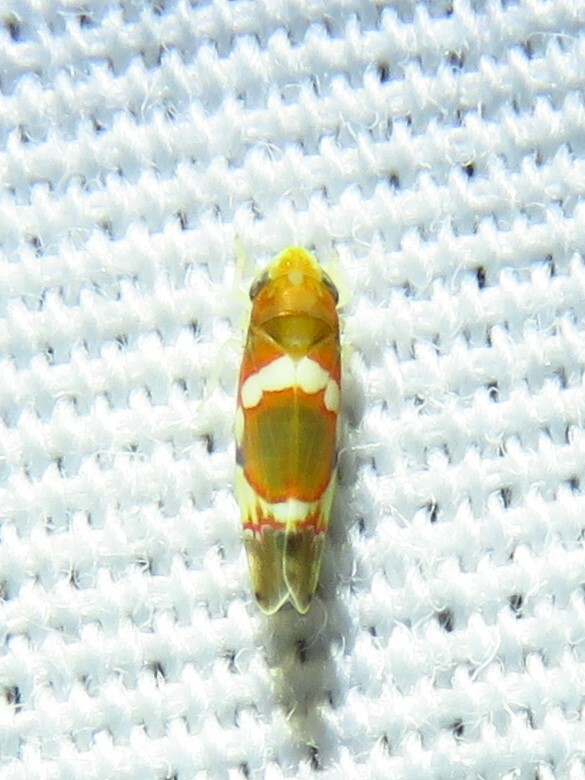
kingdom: Animalia
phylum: Arthropoda
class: Insecta
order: Hemiptera
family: Cicadellidae
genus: Erythroneura
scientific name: Erythroneura vitis
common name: Grapevine leafhopper
